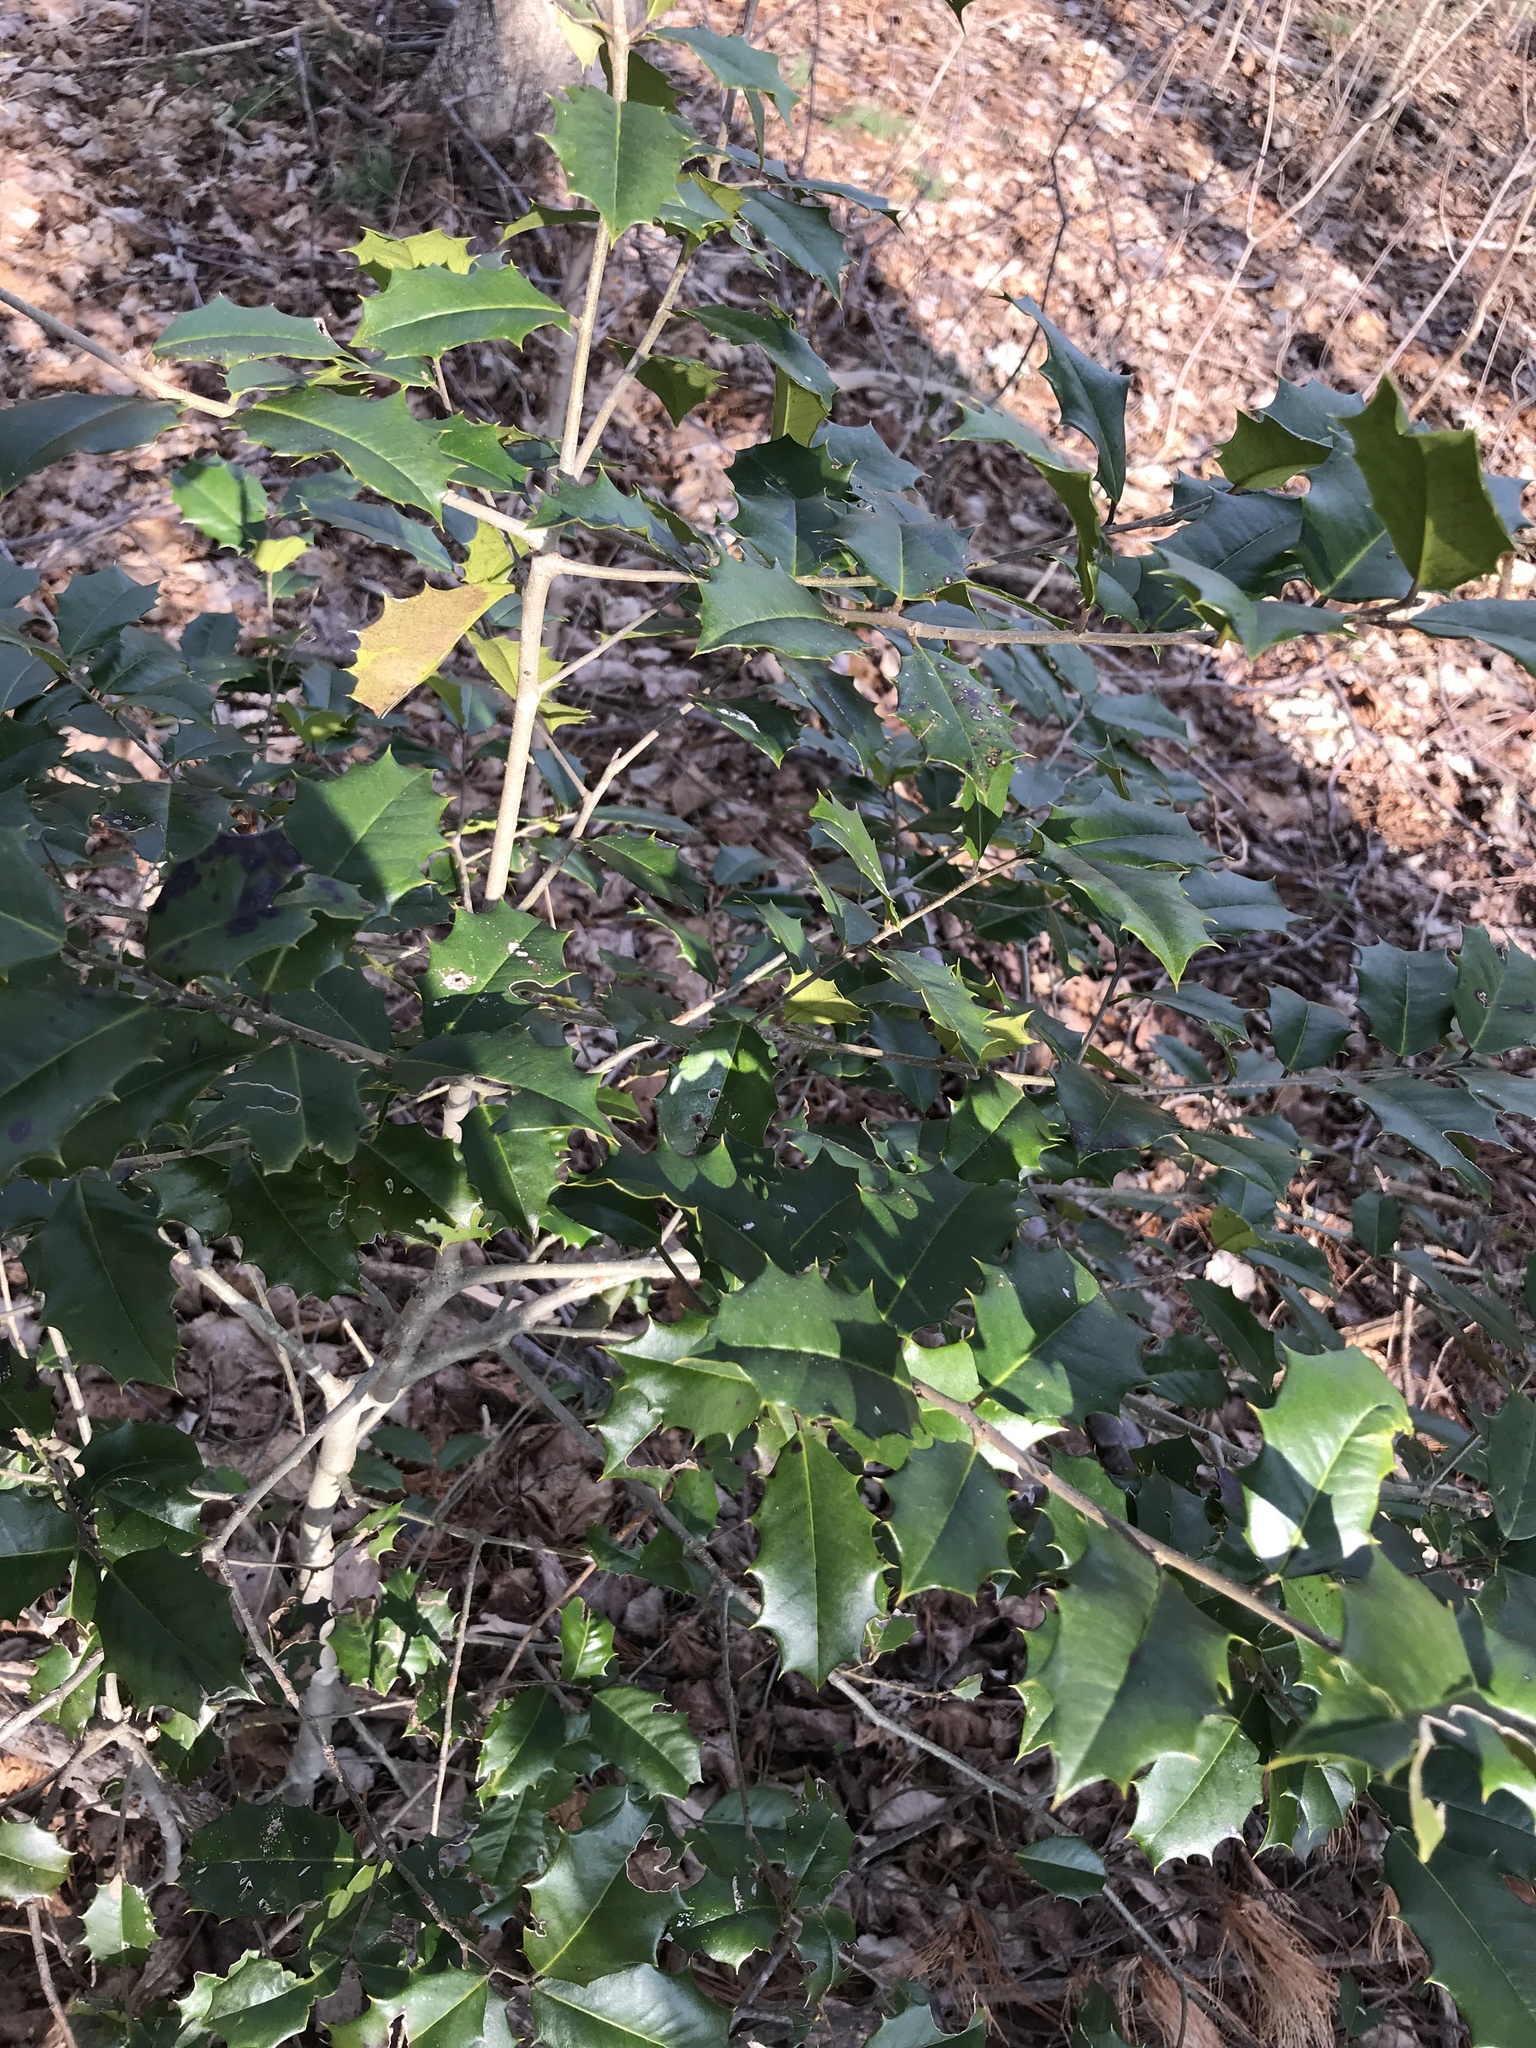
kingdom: Plantae
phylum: Tracheophyta
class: Magnoliopsida
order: Aquifoliales
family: Aquifoliaceae
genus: Ilex
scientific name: Ilex opaca
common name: American holly
